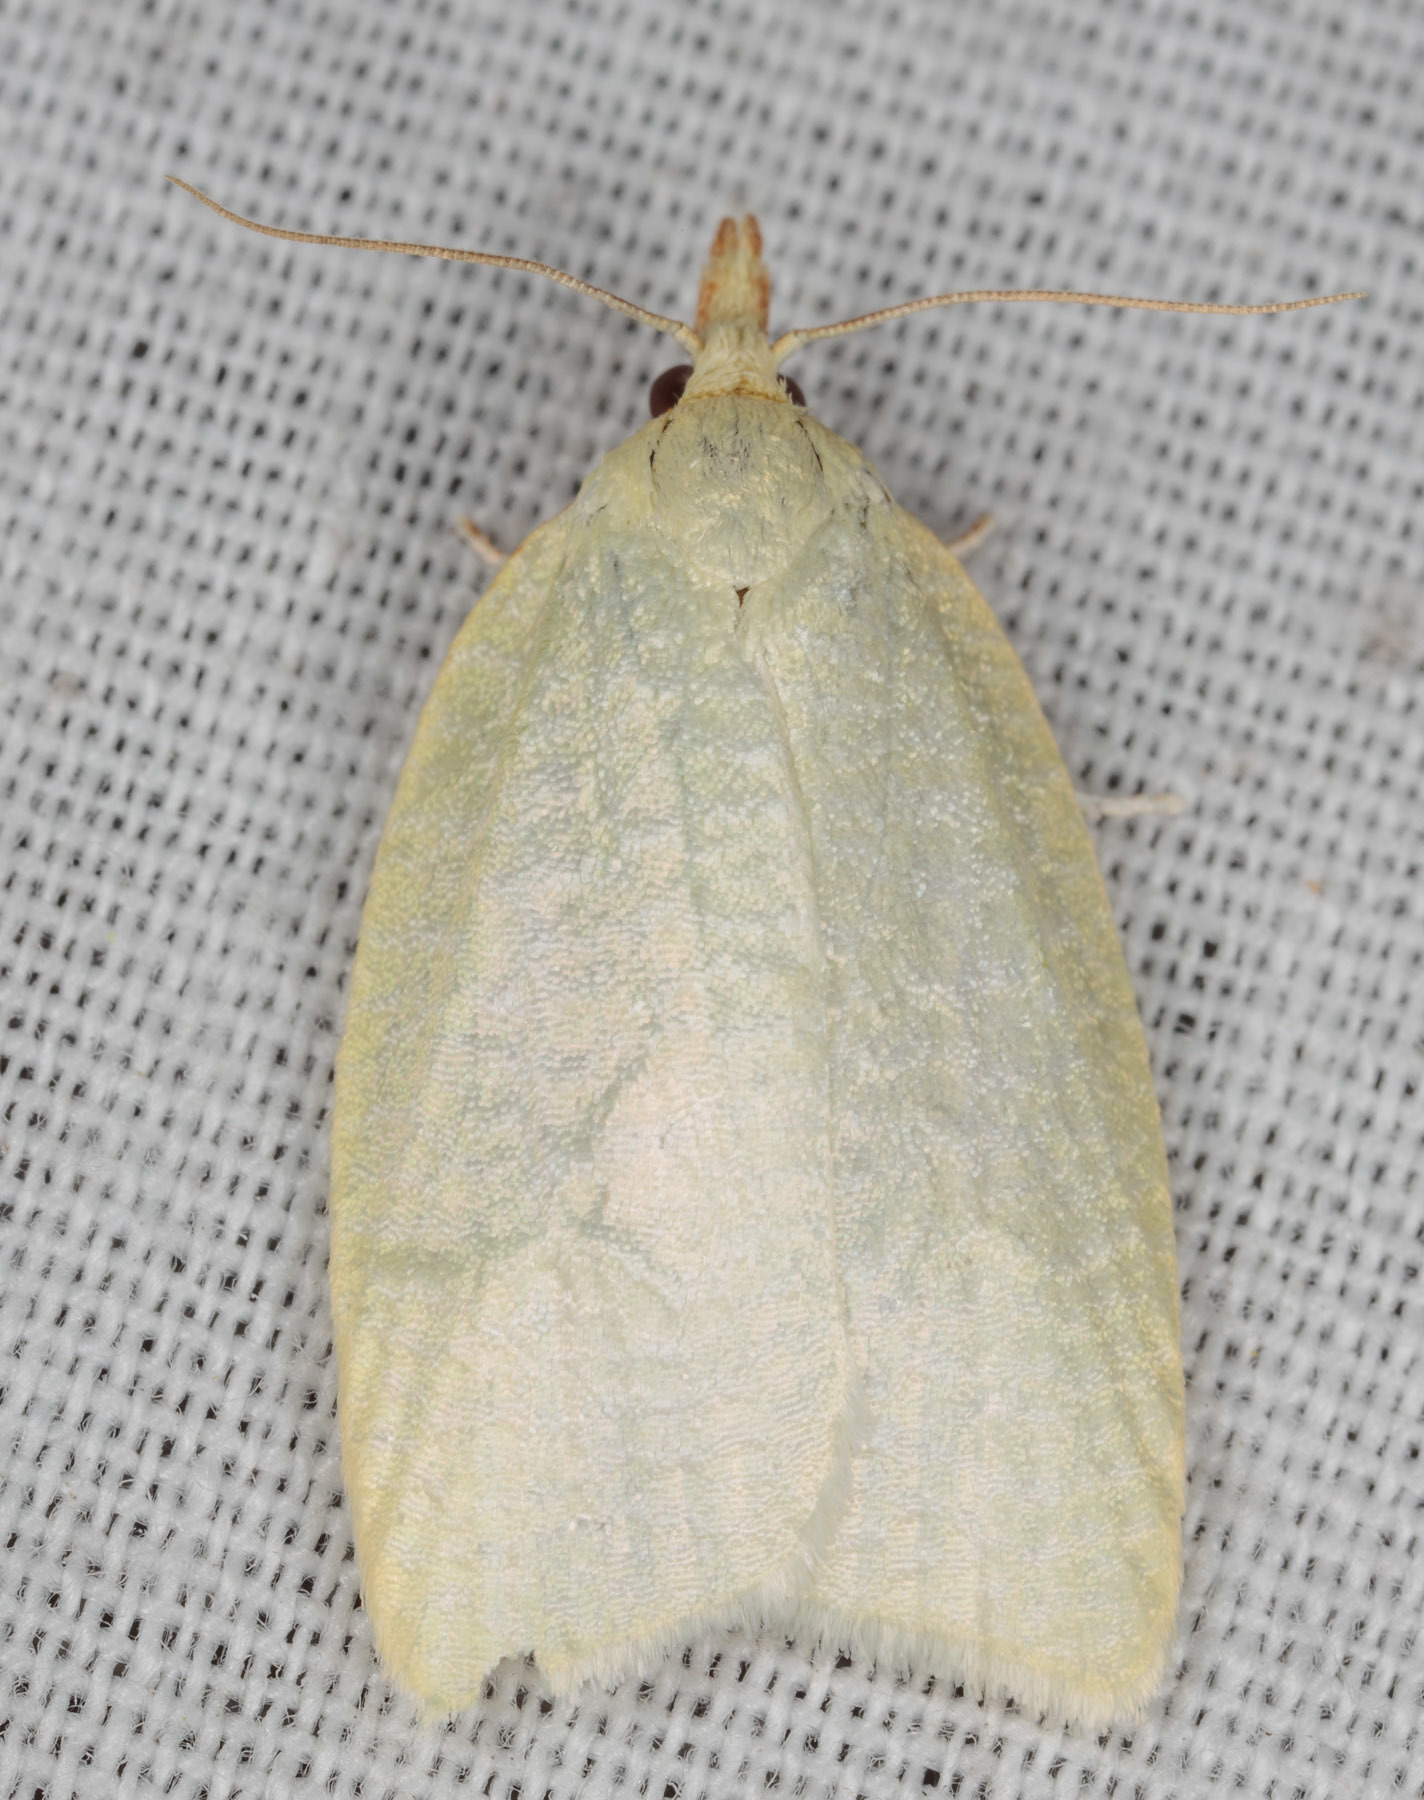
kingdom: Animalia
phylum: Arthropoda
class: Insecta
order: Lepidoptera
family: Tortricidae
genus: Cenopis
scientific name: Cenopis pettitana
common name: Maple-basswood leafroller moth
